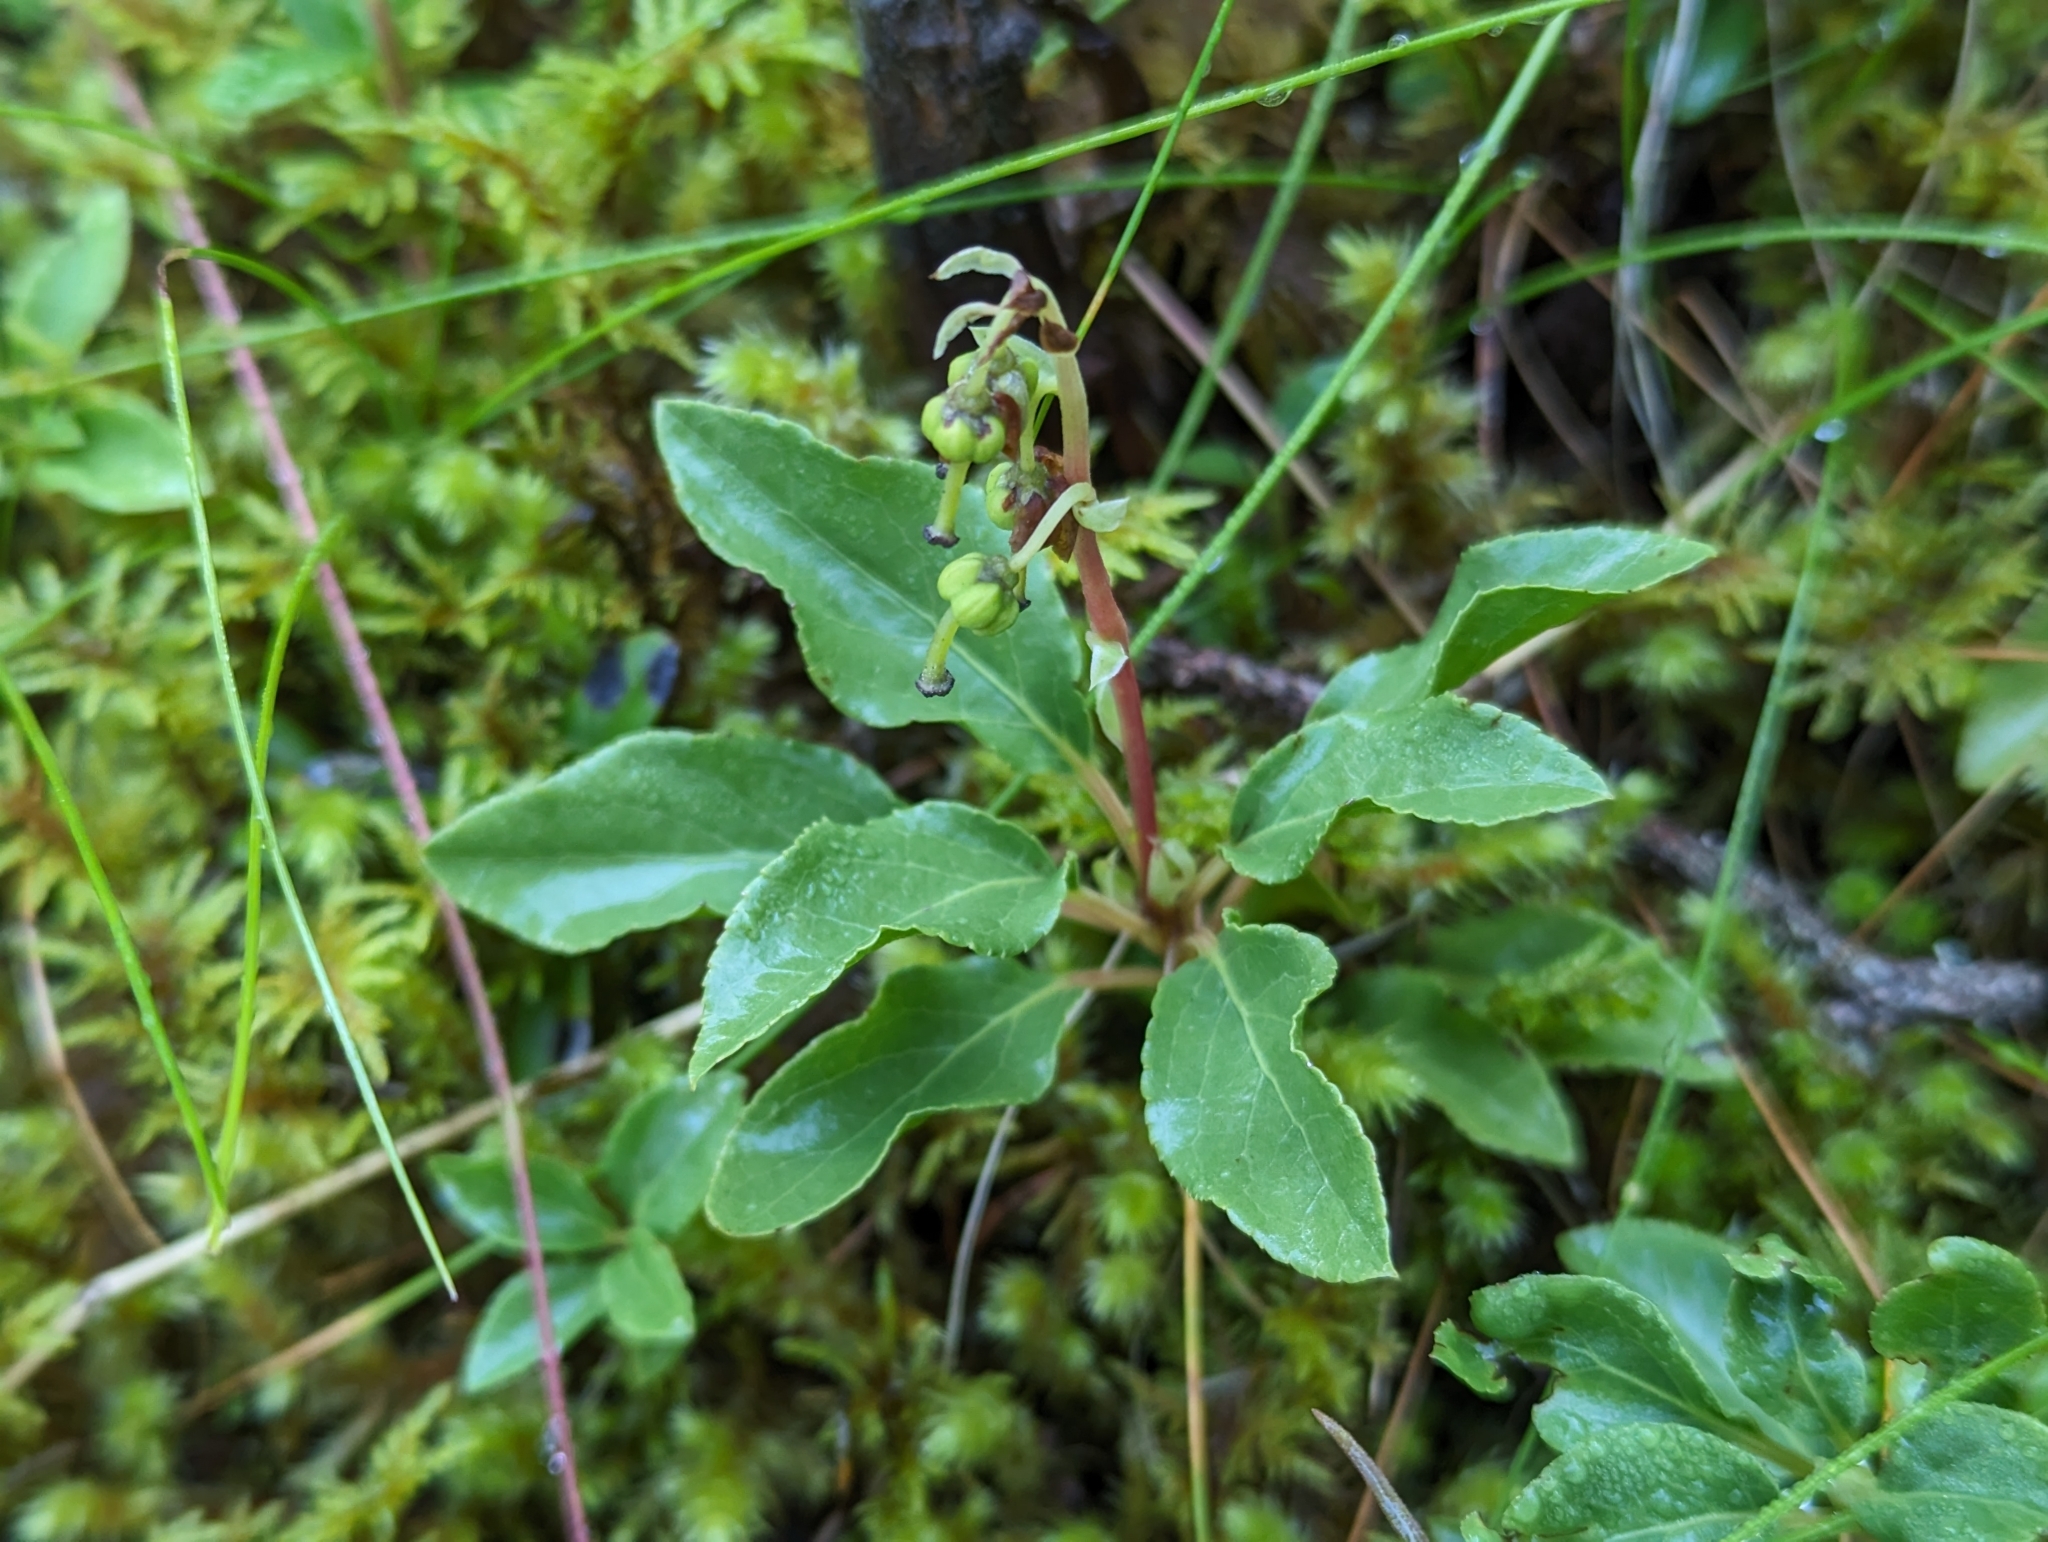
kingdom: Plantae
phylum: Tracheophyta
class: Magnoliopsida
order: Ericales
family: Ericaceae
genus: Orthilia
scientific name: Orthilia secunda
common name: One-sided orthilia
